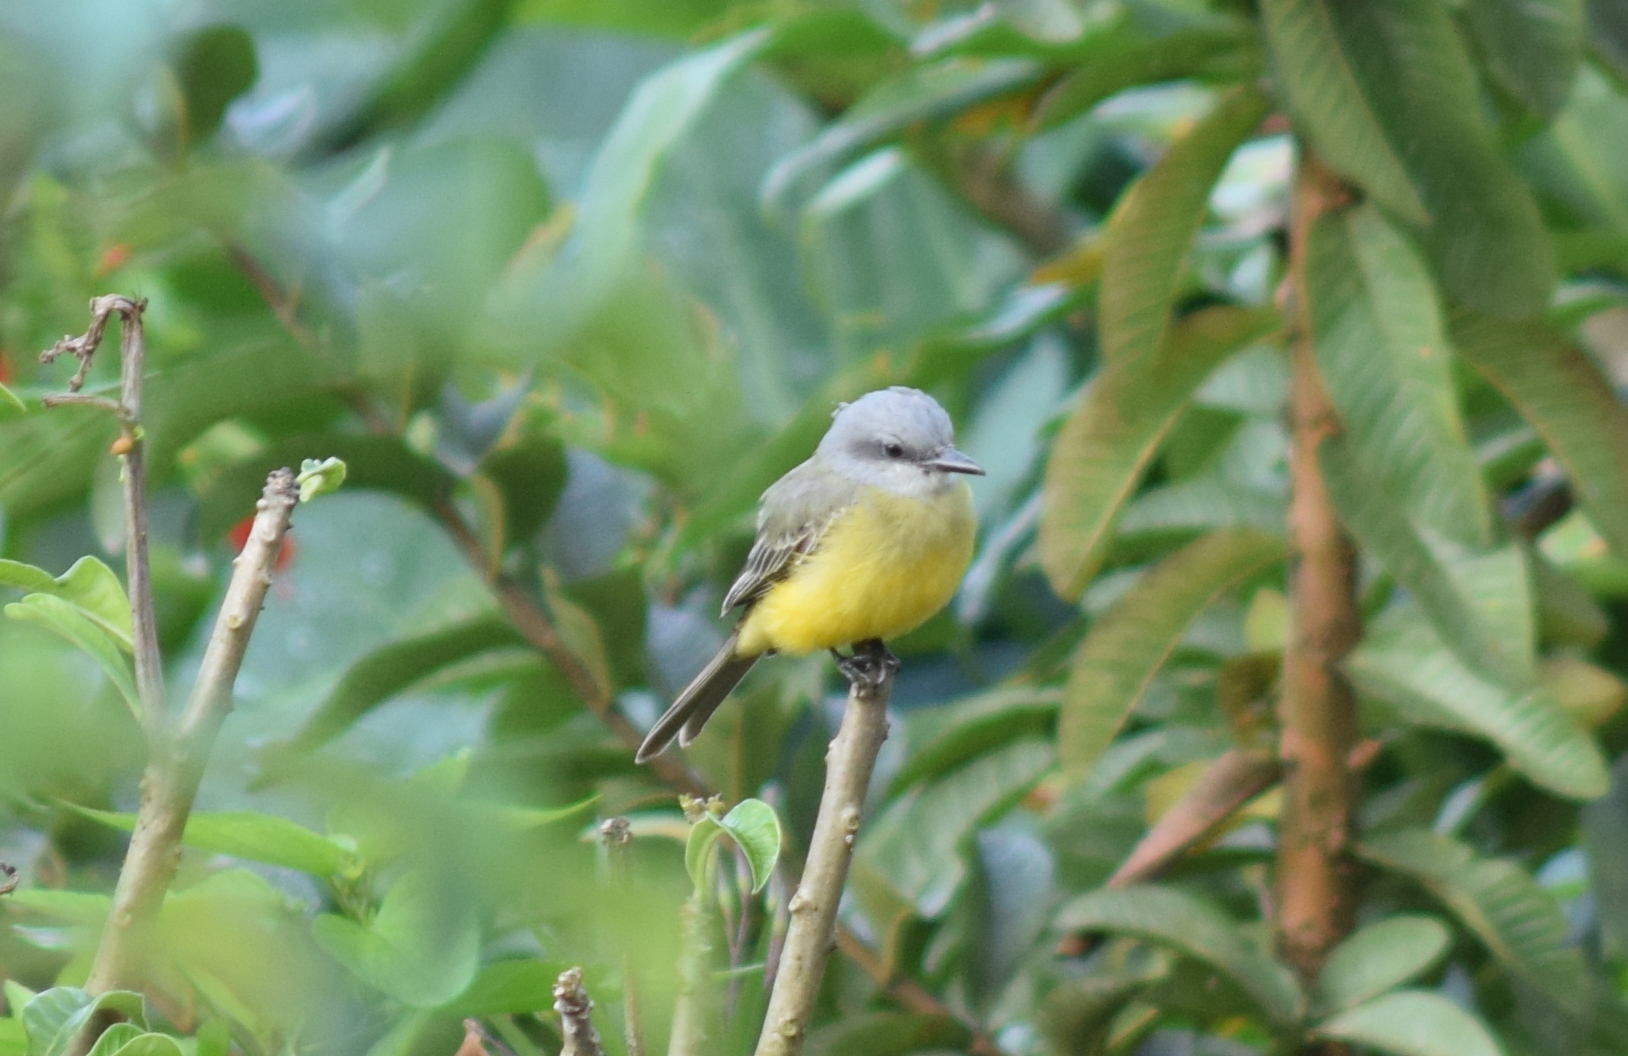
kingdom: Animalia
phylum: Chordata
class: Aves
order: Passeriformes
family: Tyrannidae
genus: Tyrannus
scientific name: Tyrannus melancholicus
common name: Tropical kingbird
